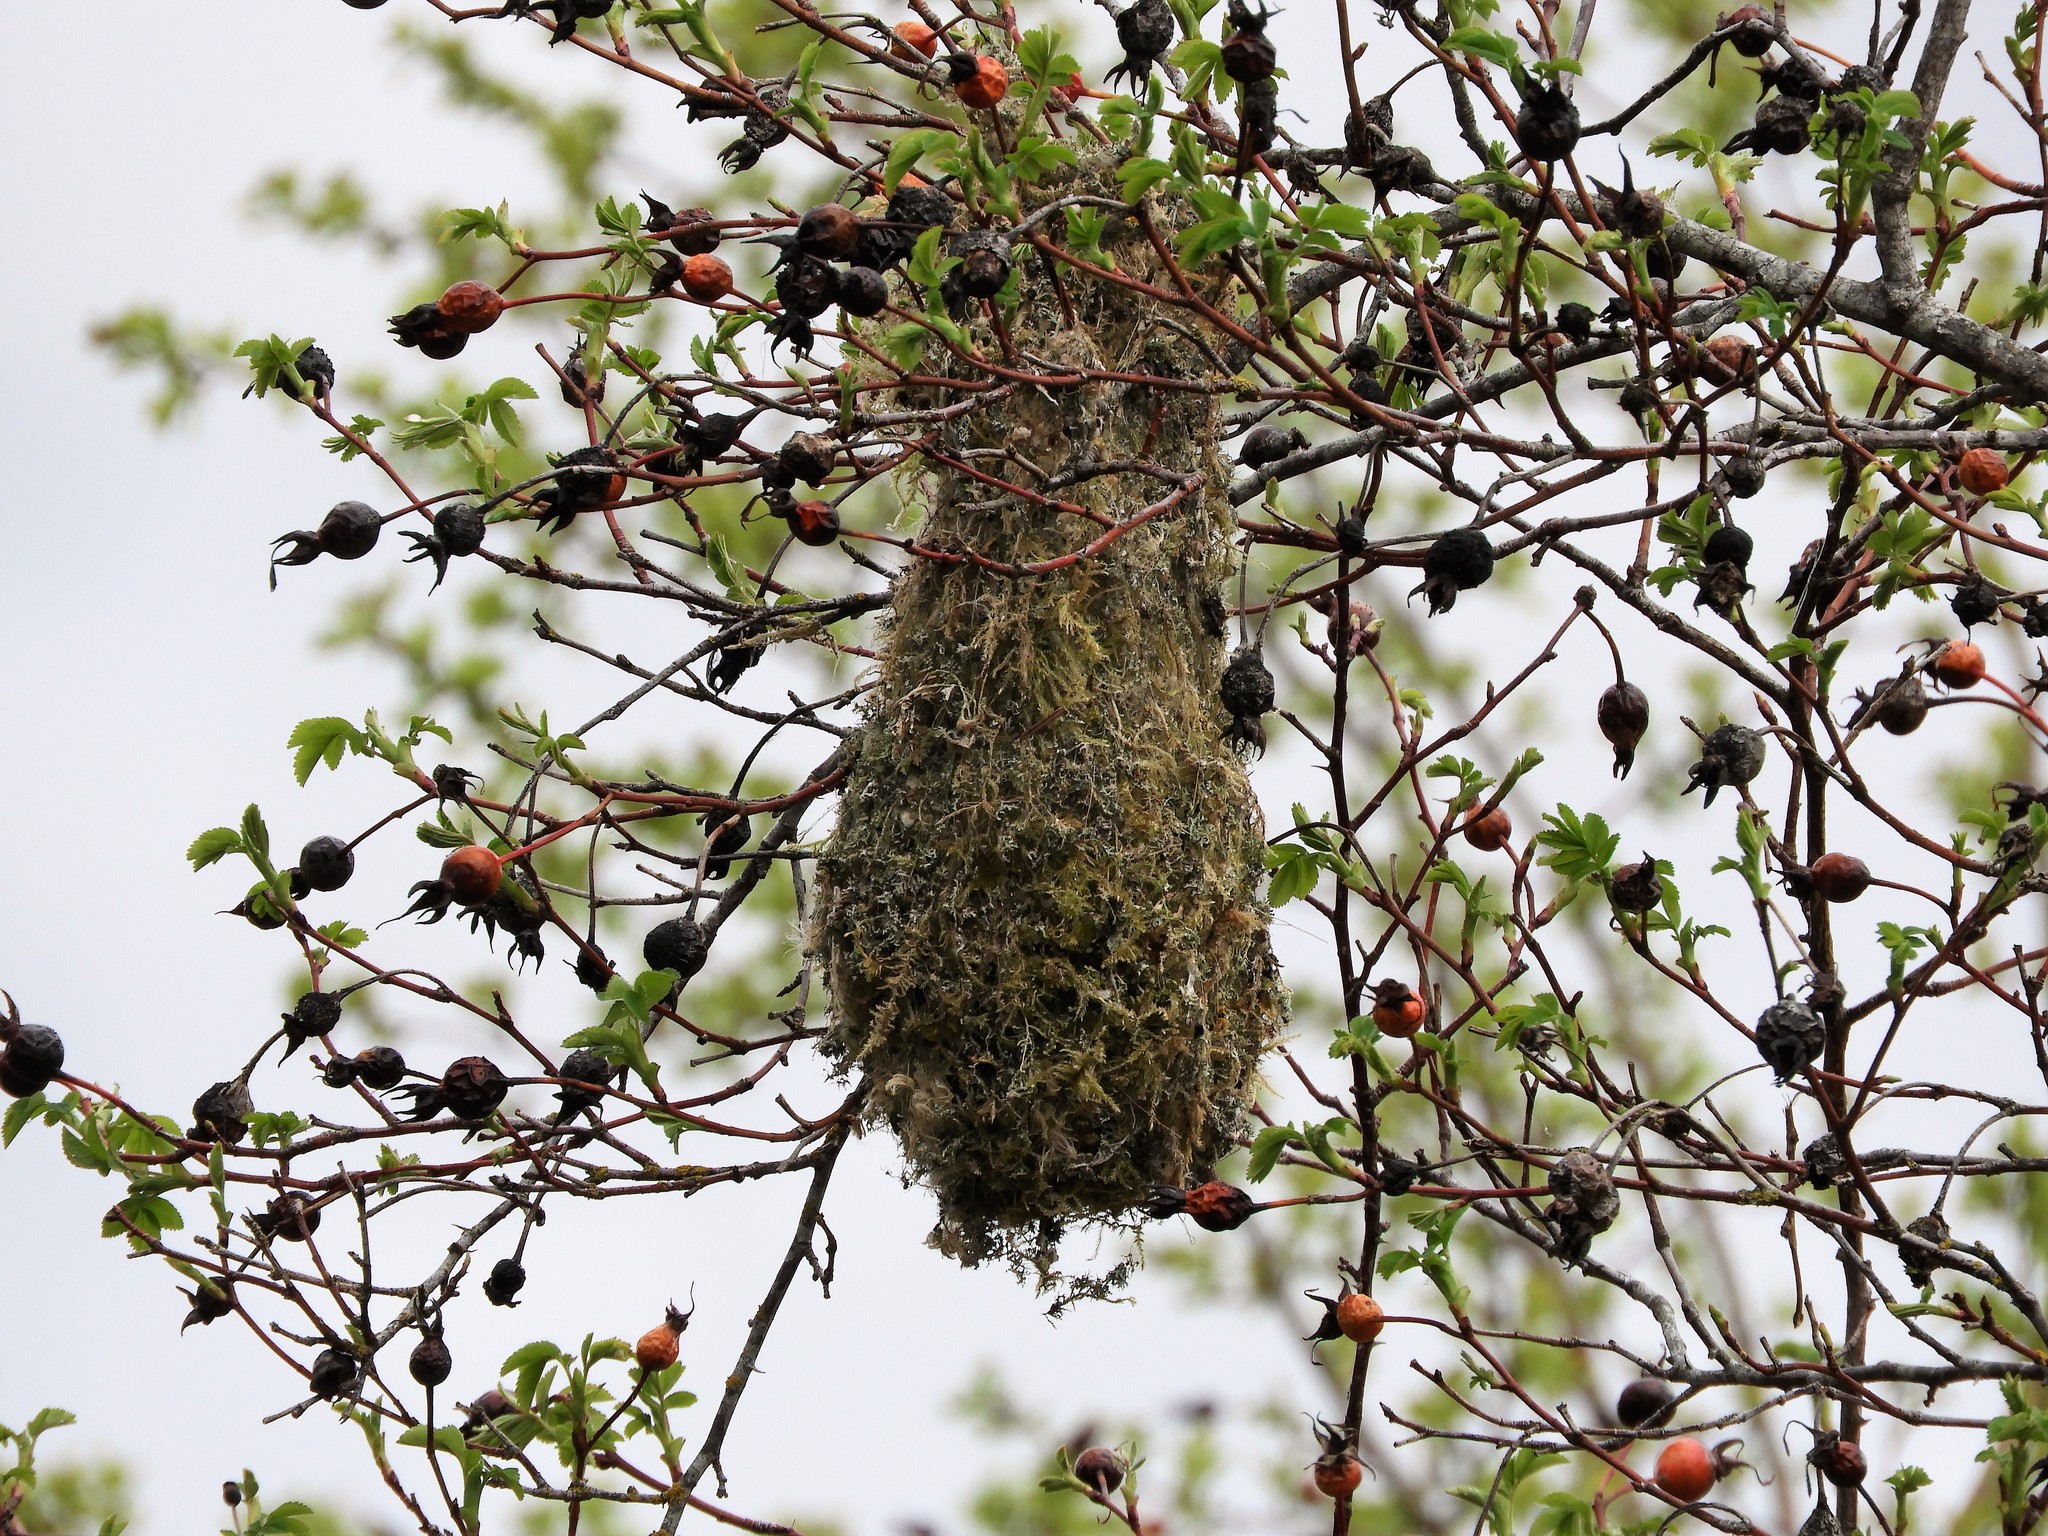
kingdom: Animalia
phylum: Chordata
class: Aves
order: Passeriformes
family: Aegithalidae
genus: Psaltriparus
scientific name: Psaltriparus minimus
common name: American bushtit
